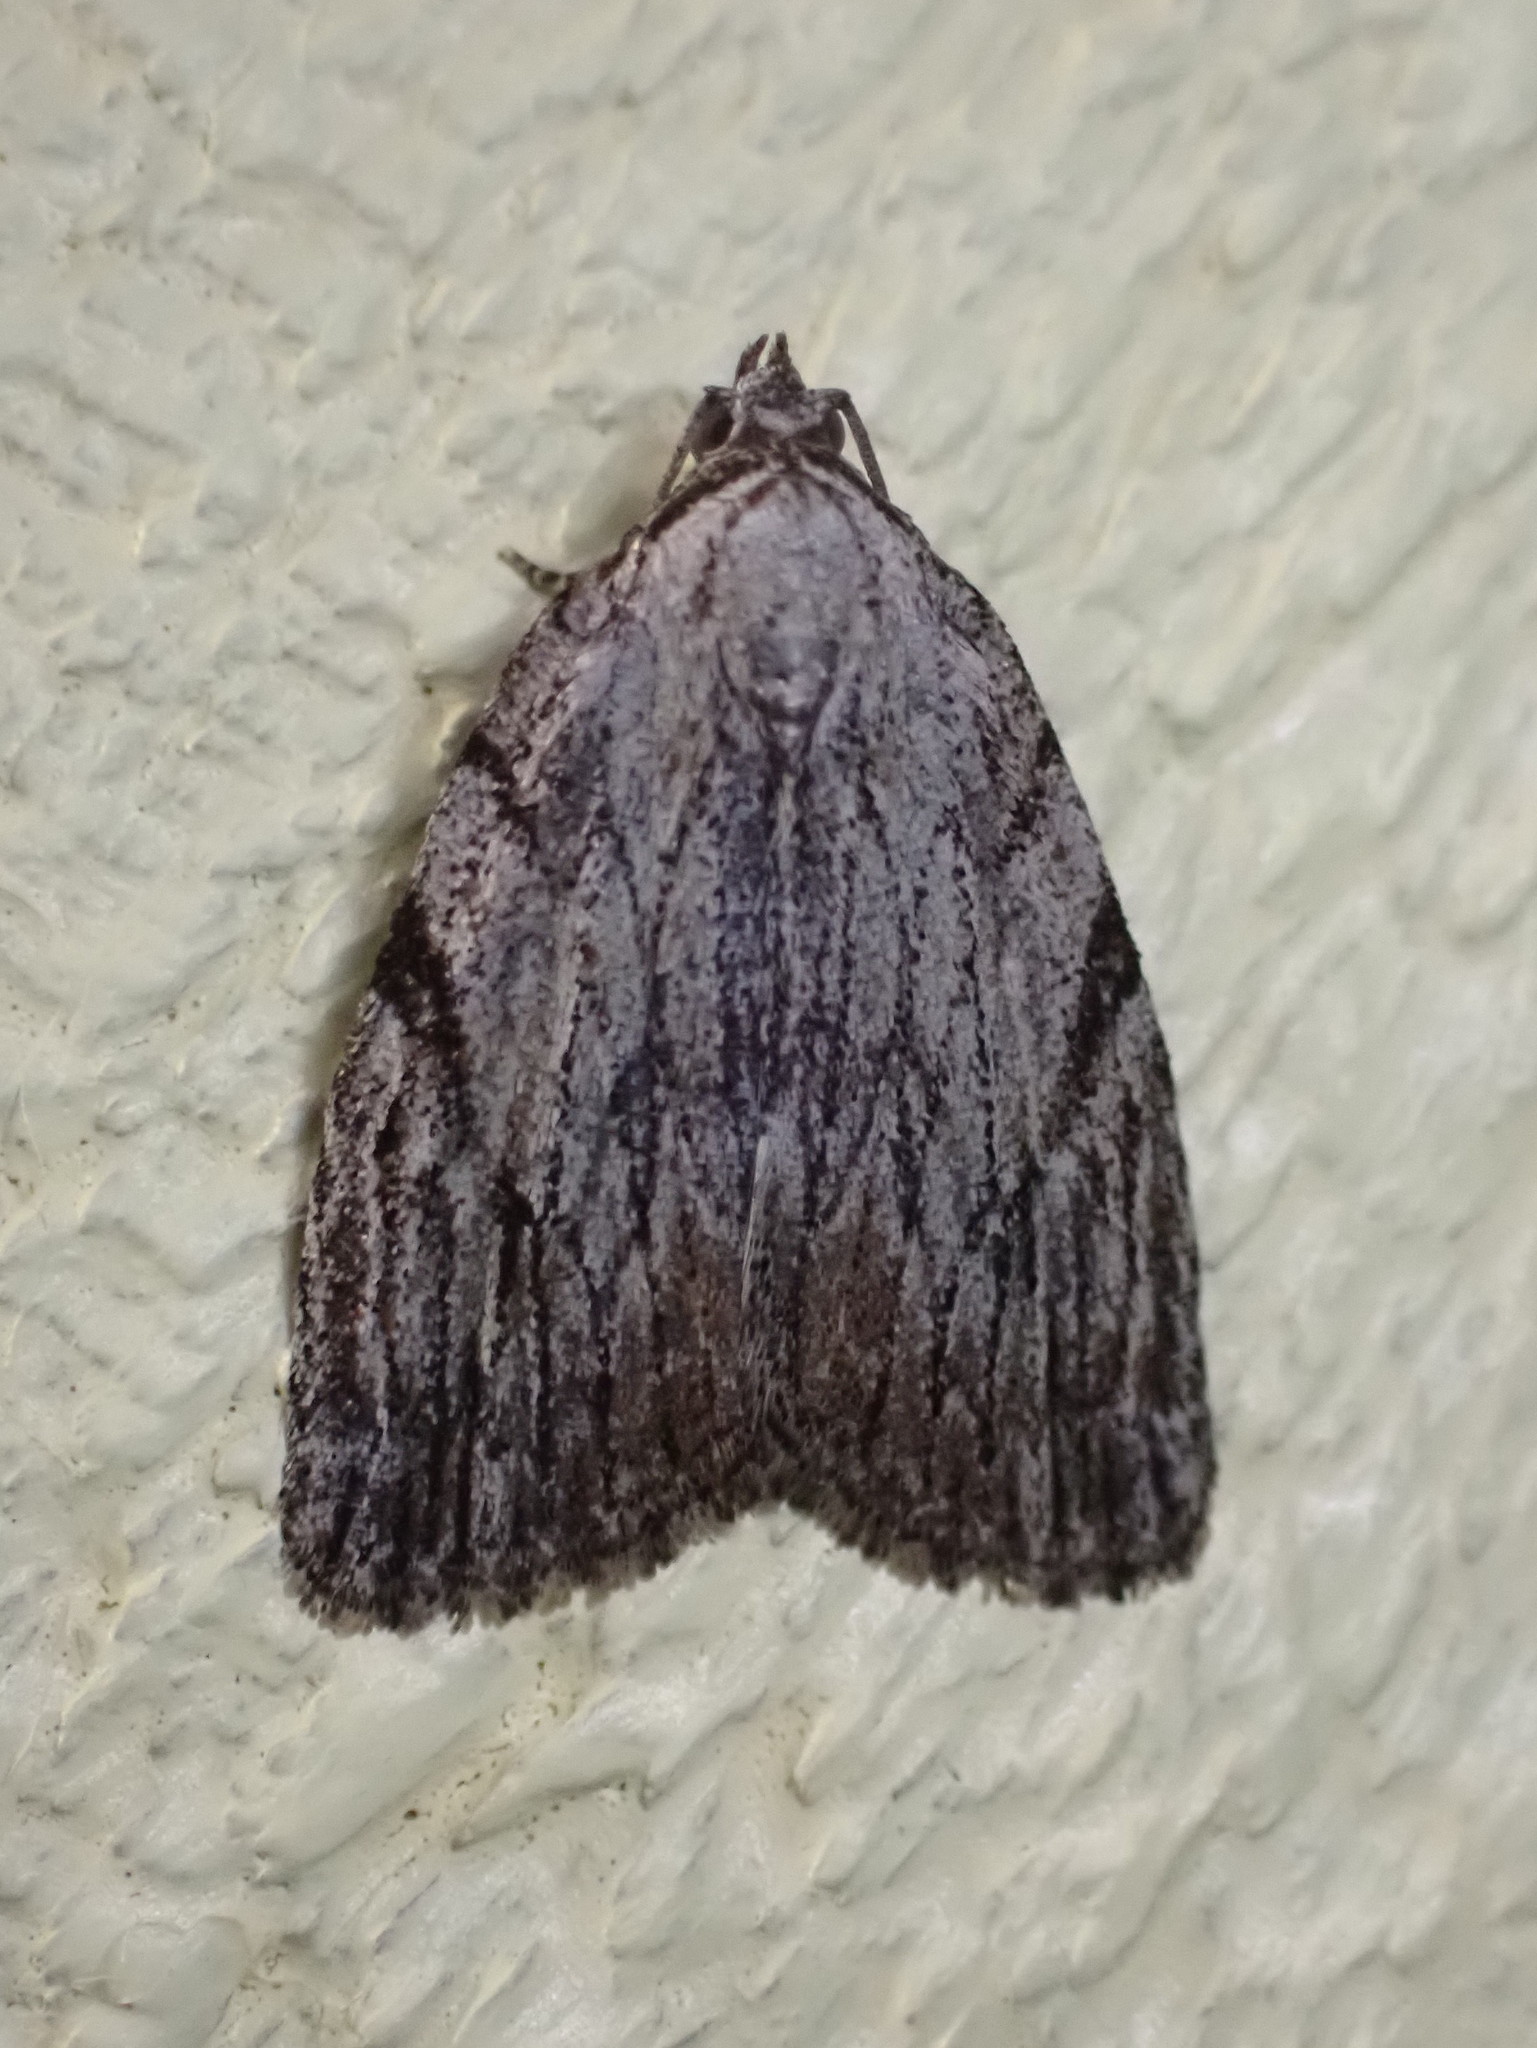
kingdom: Animalia
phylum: Arthropoda
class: Insecta
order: Lepidoptera
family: Noctuidae
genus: Balsa
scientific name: Balsa tristrigella
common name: Three-lined balsa moth
